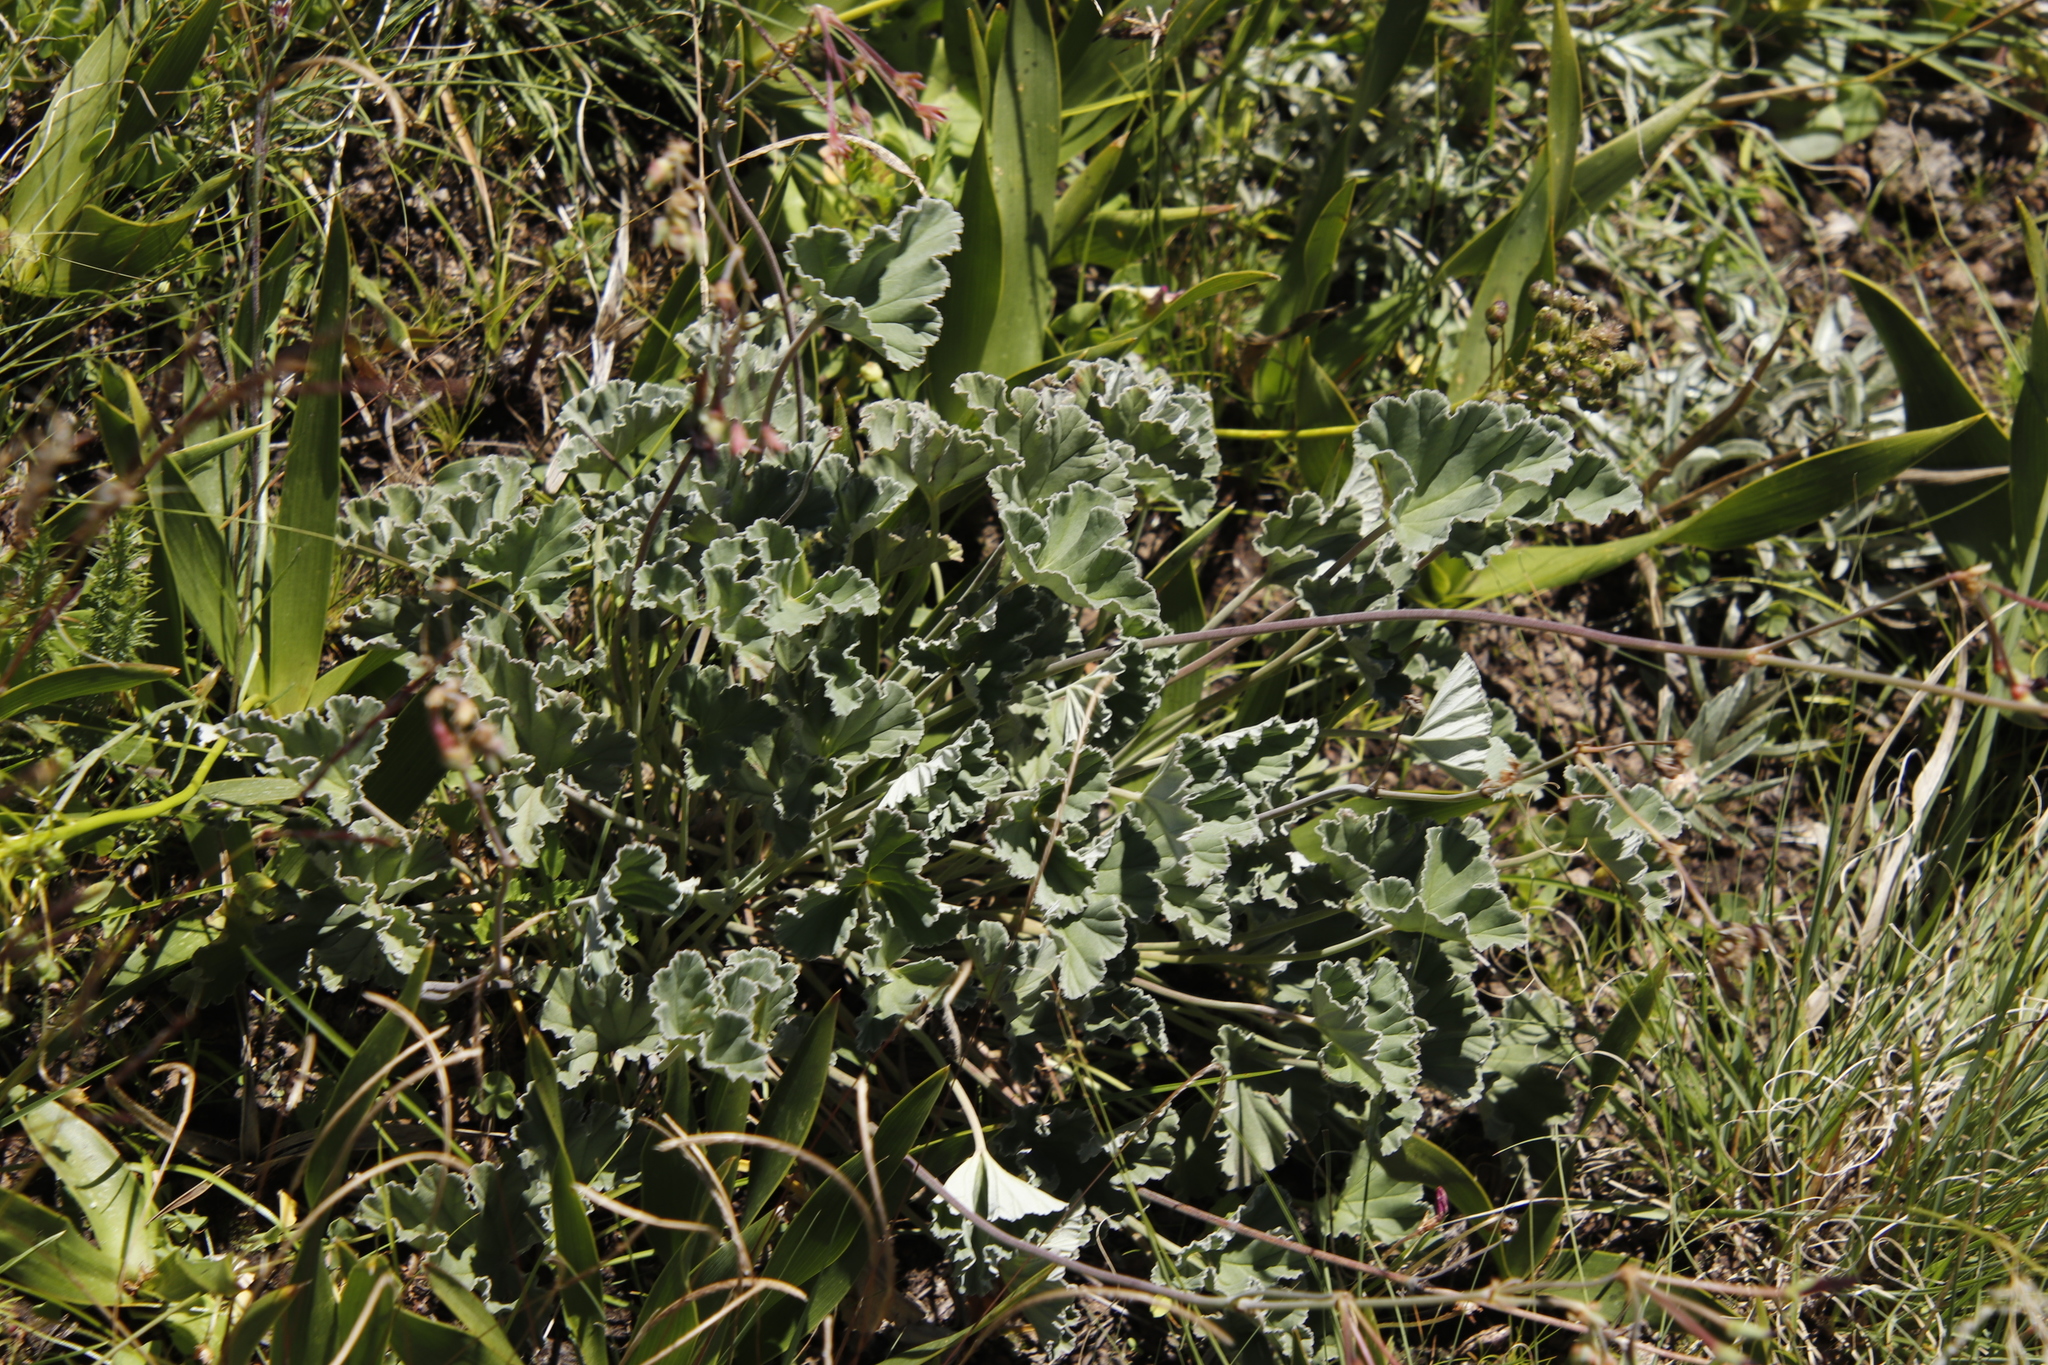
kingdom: Plantae
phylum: Tracheophyta
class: Magnoliopsida
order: Geraniales
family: Geraniaceae
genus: Pelargonium
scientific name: Pelargonium sidoides
